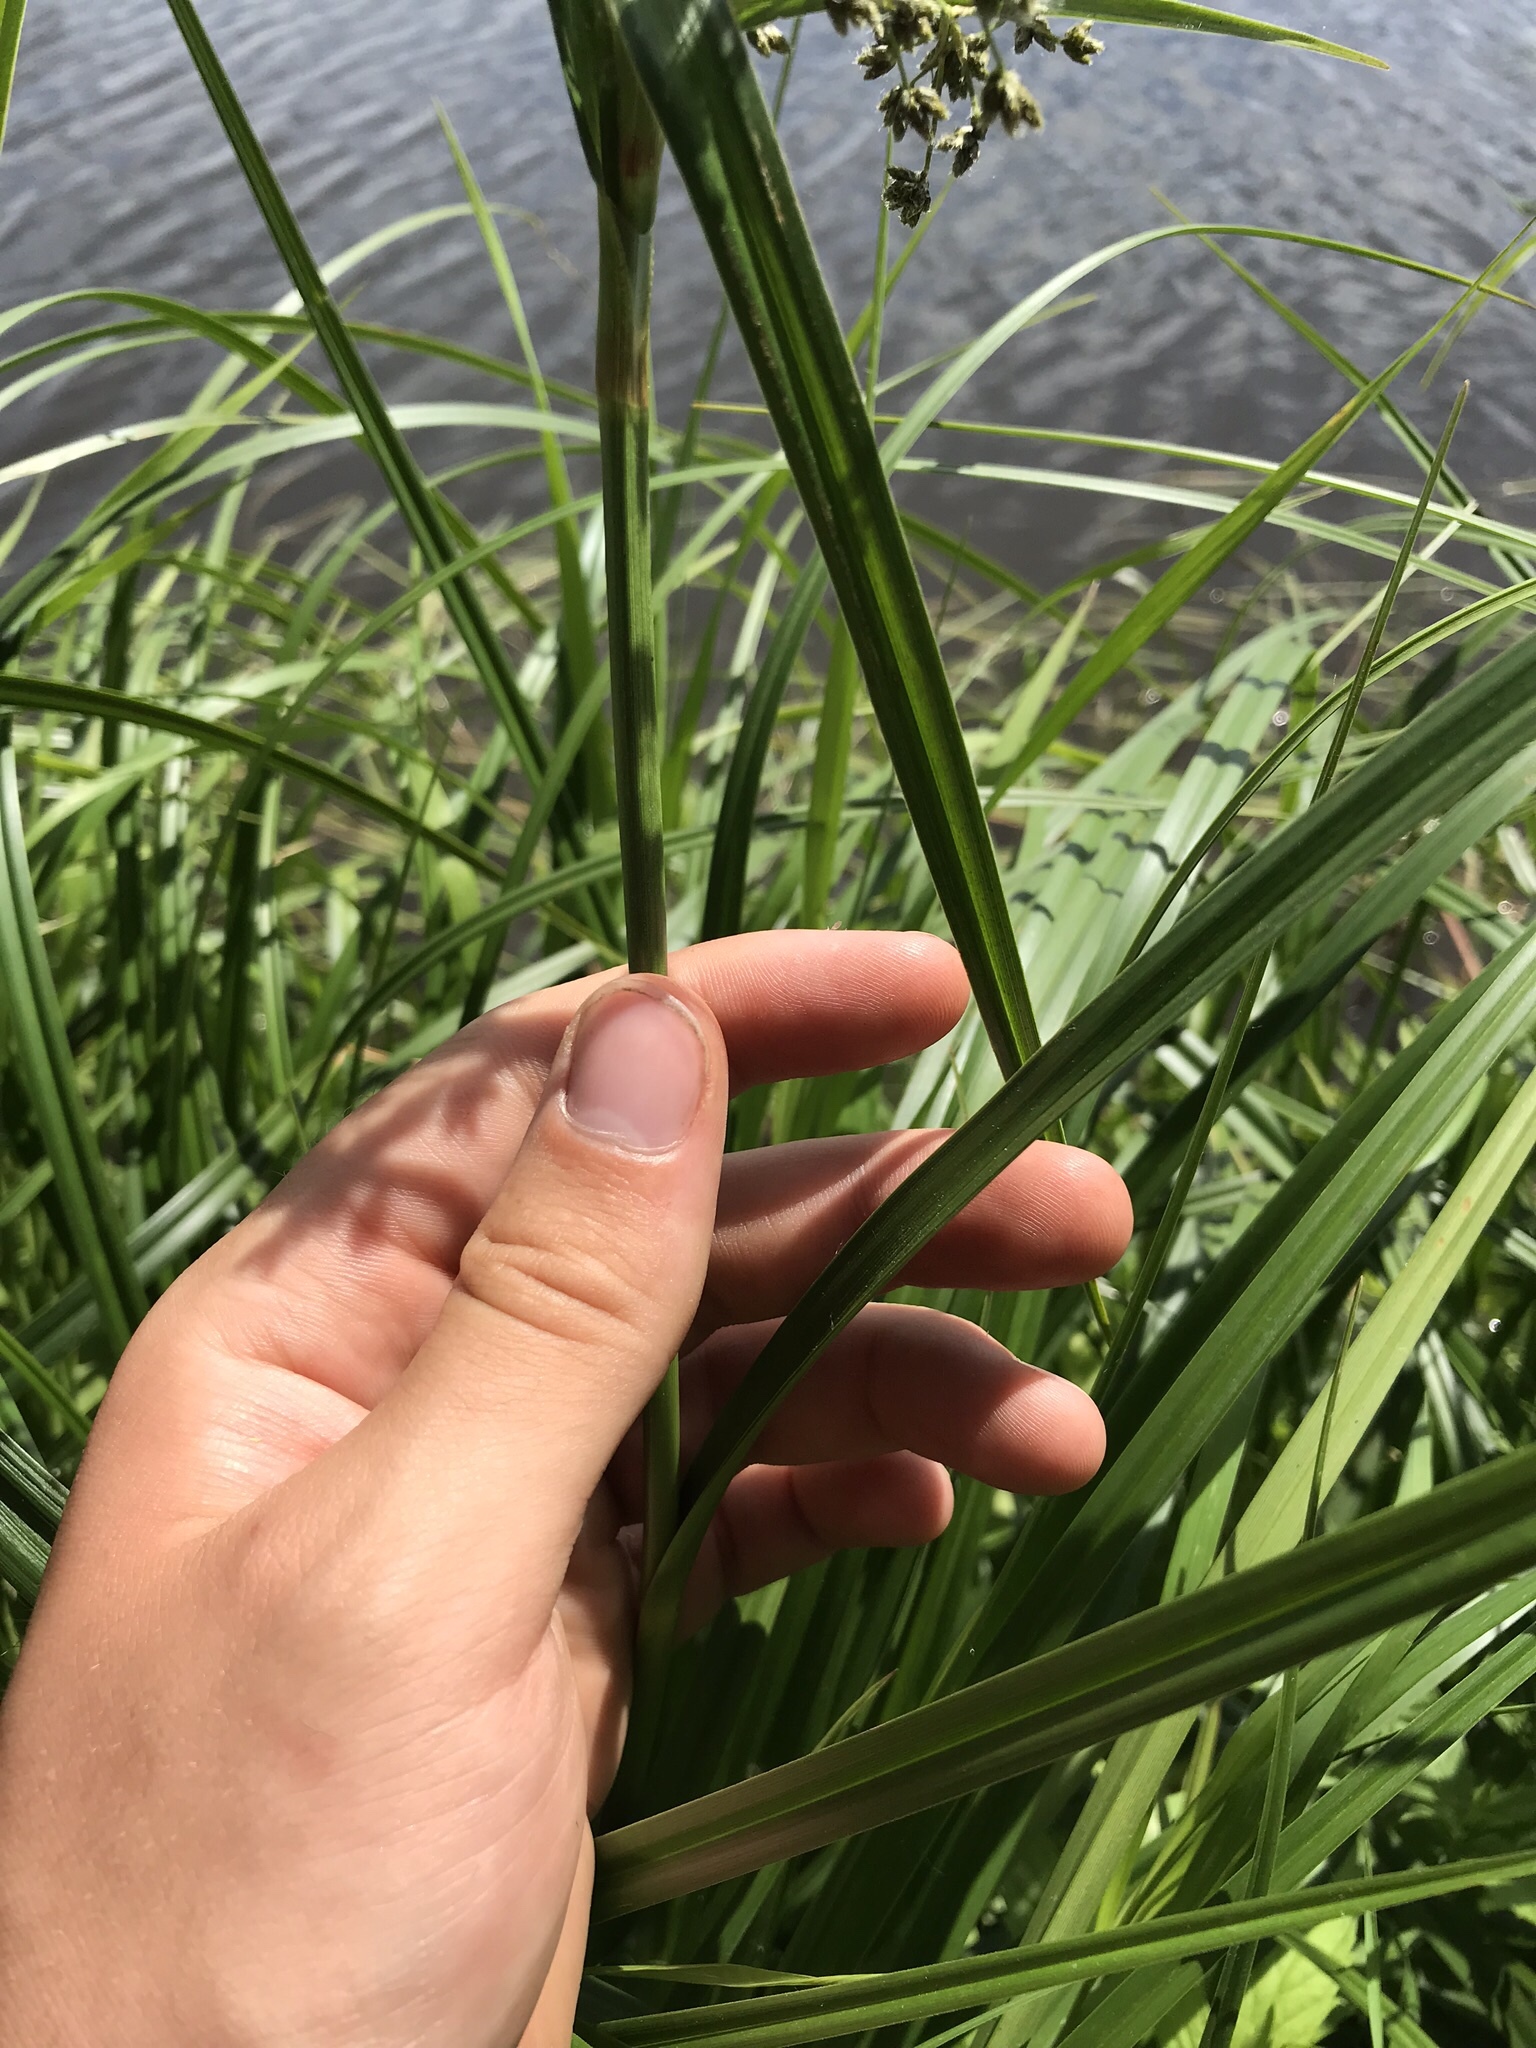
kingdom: Plantae
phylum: Tracheophyta
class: Liliopsida
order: Poales
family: Cyperaceae
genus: Scirpus
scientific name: Scirpus microcarpus
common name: Panicled bulrush
